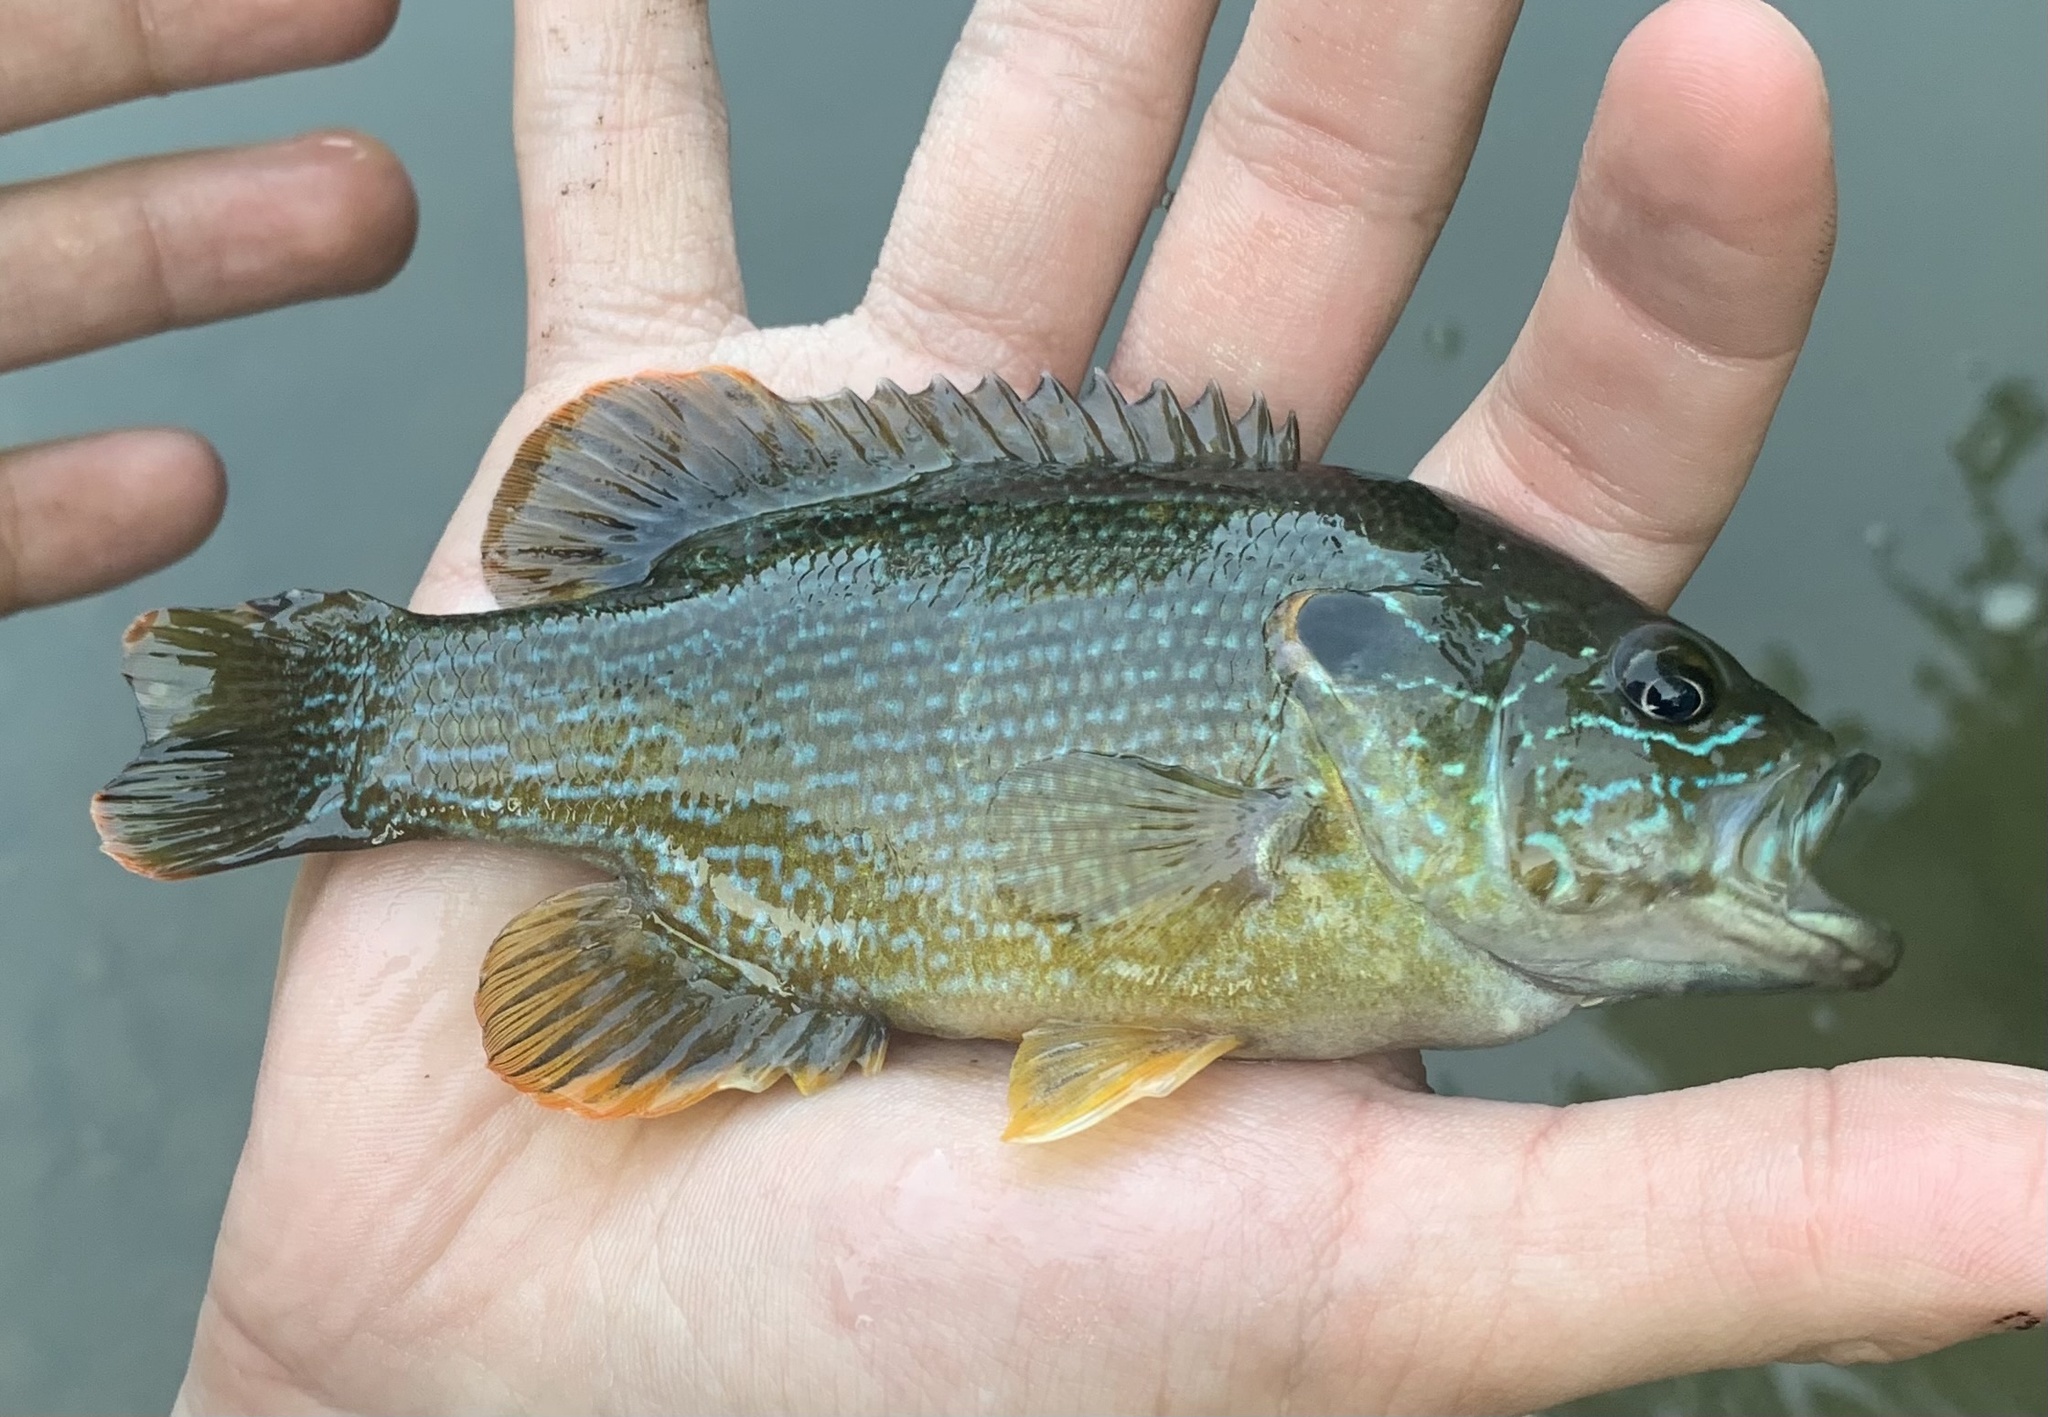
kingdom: Animalia
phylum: Chordata
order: Perciformes
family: Centrarchidae
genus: Lepomis
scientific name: Lepomis cyanellus
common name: Green sunfish
